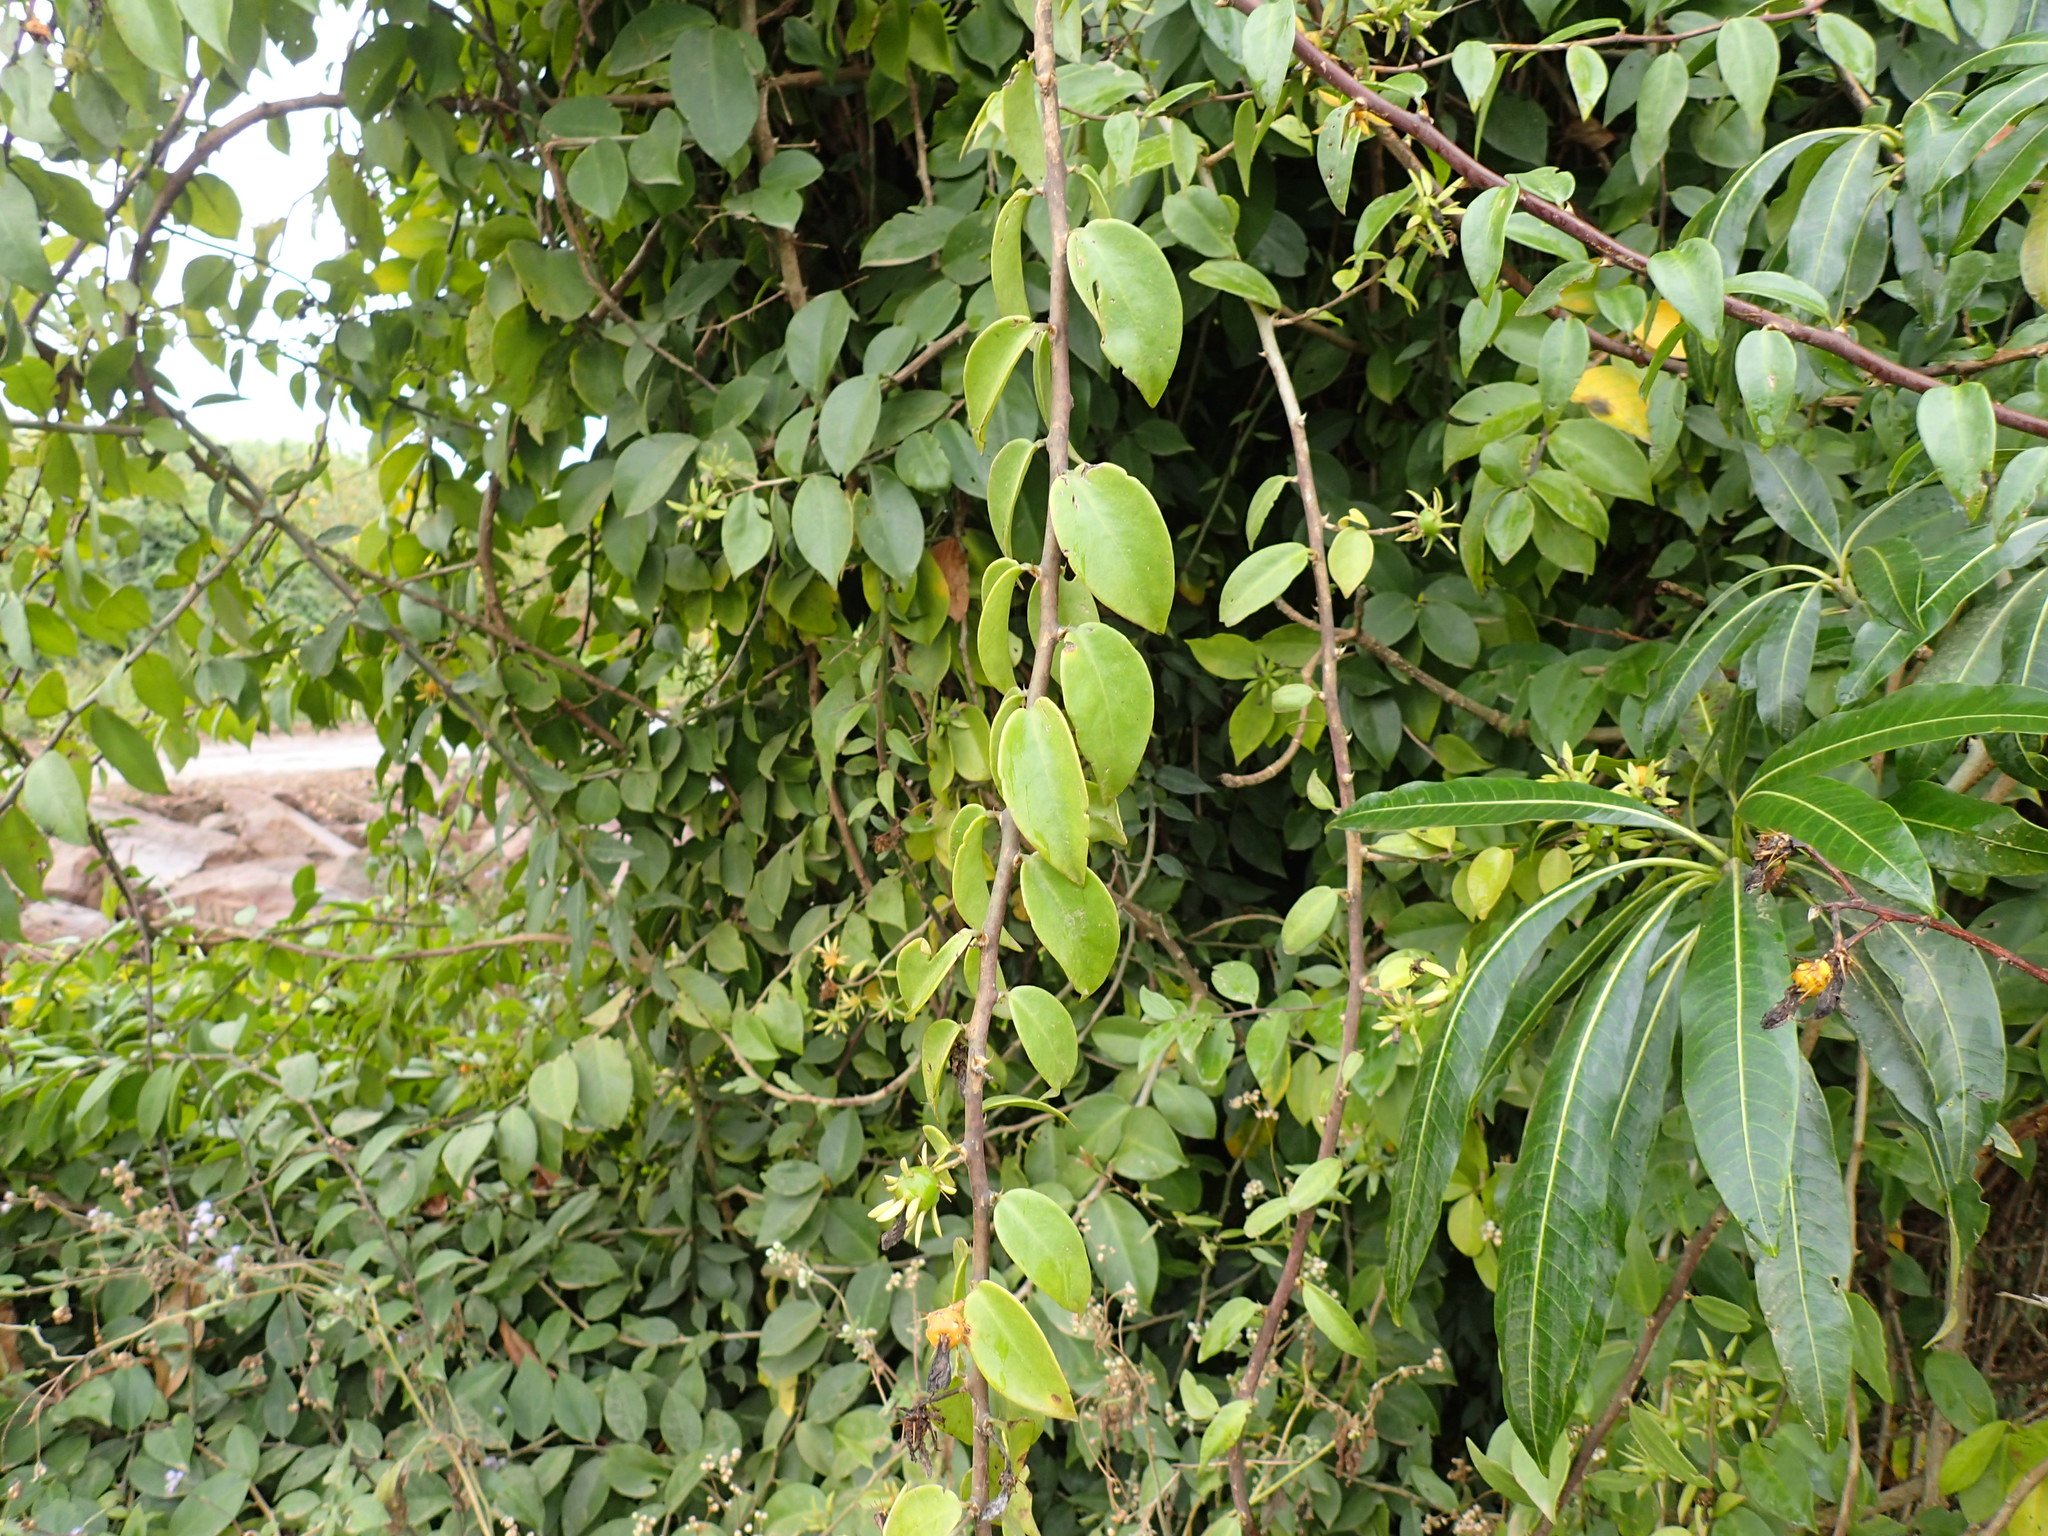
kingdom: Plantae
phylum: Tracheophyta
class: Magnoliopsida
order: Caryophyllales
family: Cactaceae
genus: Pereskia
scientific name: Pereskia aculeata
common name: Barbados gooseberry
